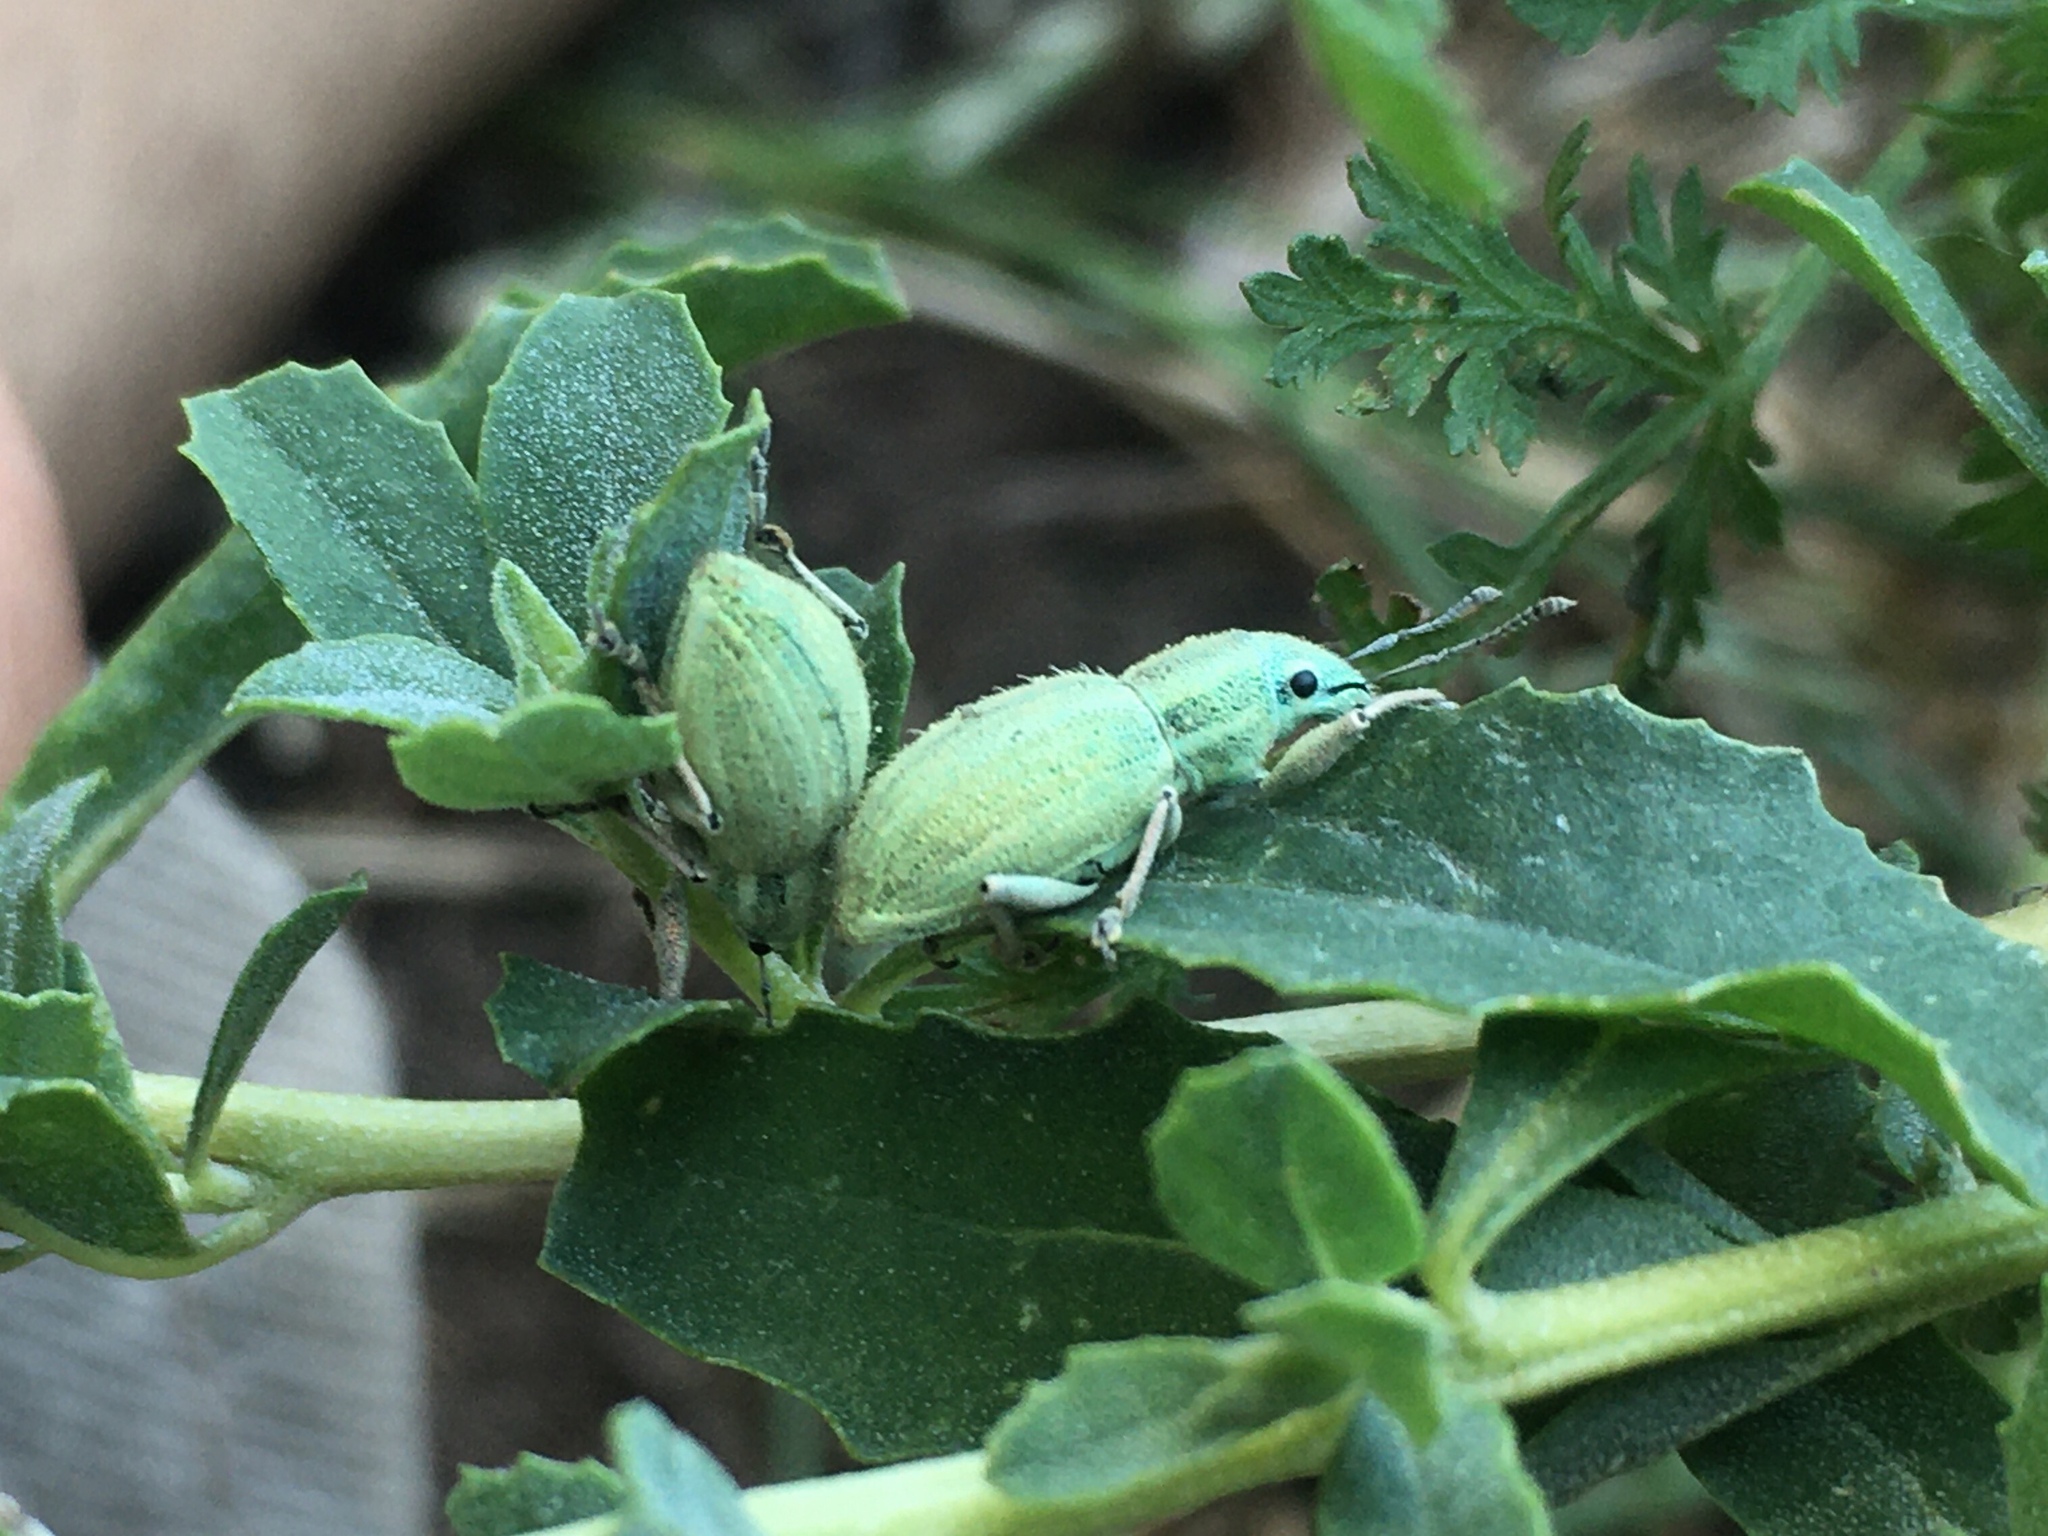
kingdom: Animalia
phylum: Arthropoda
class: Insecta
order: Coleoptera
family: Curculionidae
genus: Naupactus
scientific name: Naupactus auripes
